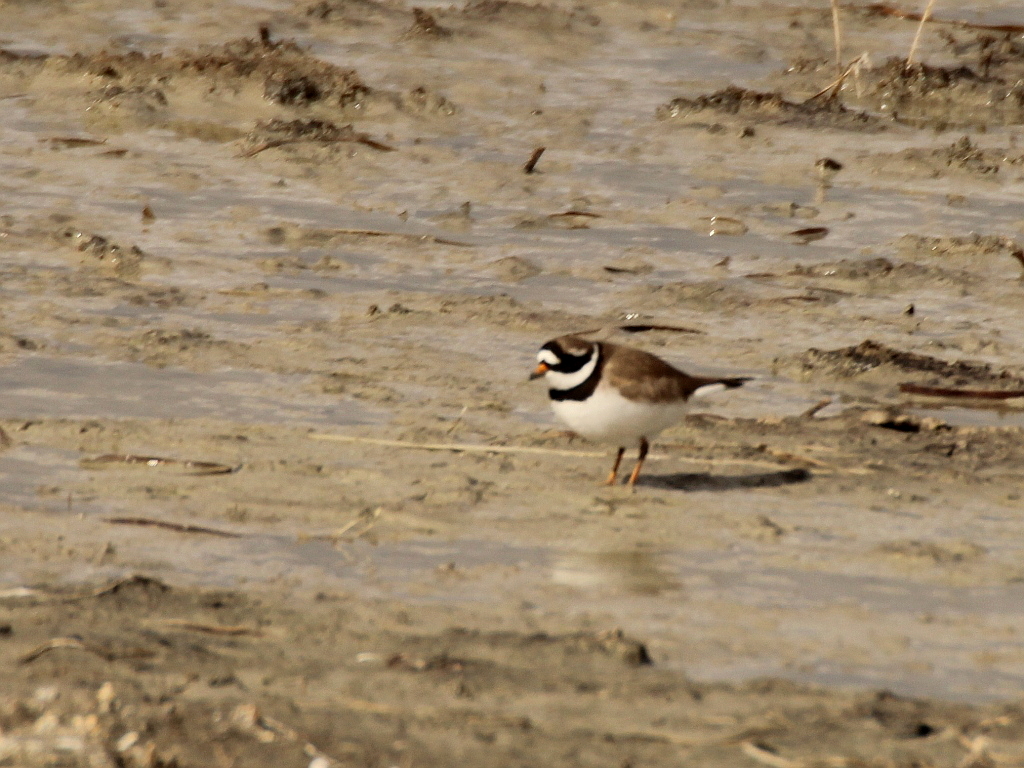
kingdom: Animalia
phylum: Chordata
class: Aves
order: Charadriiformes
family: Charadriidae
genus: Charadrius
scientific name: Charadrius hiaticula
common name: Common ringed plover
